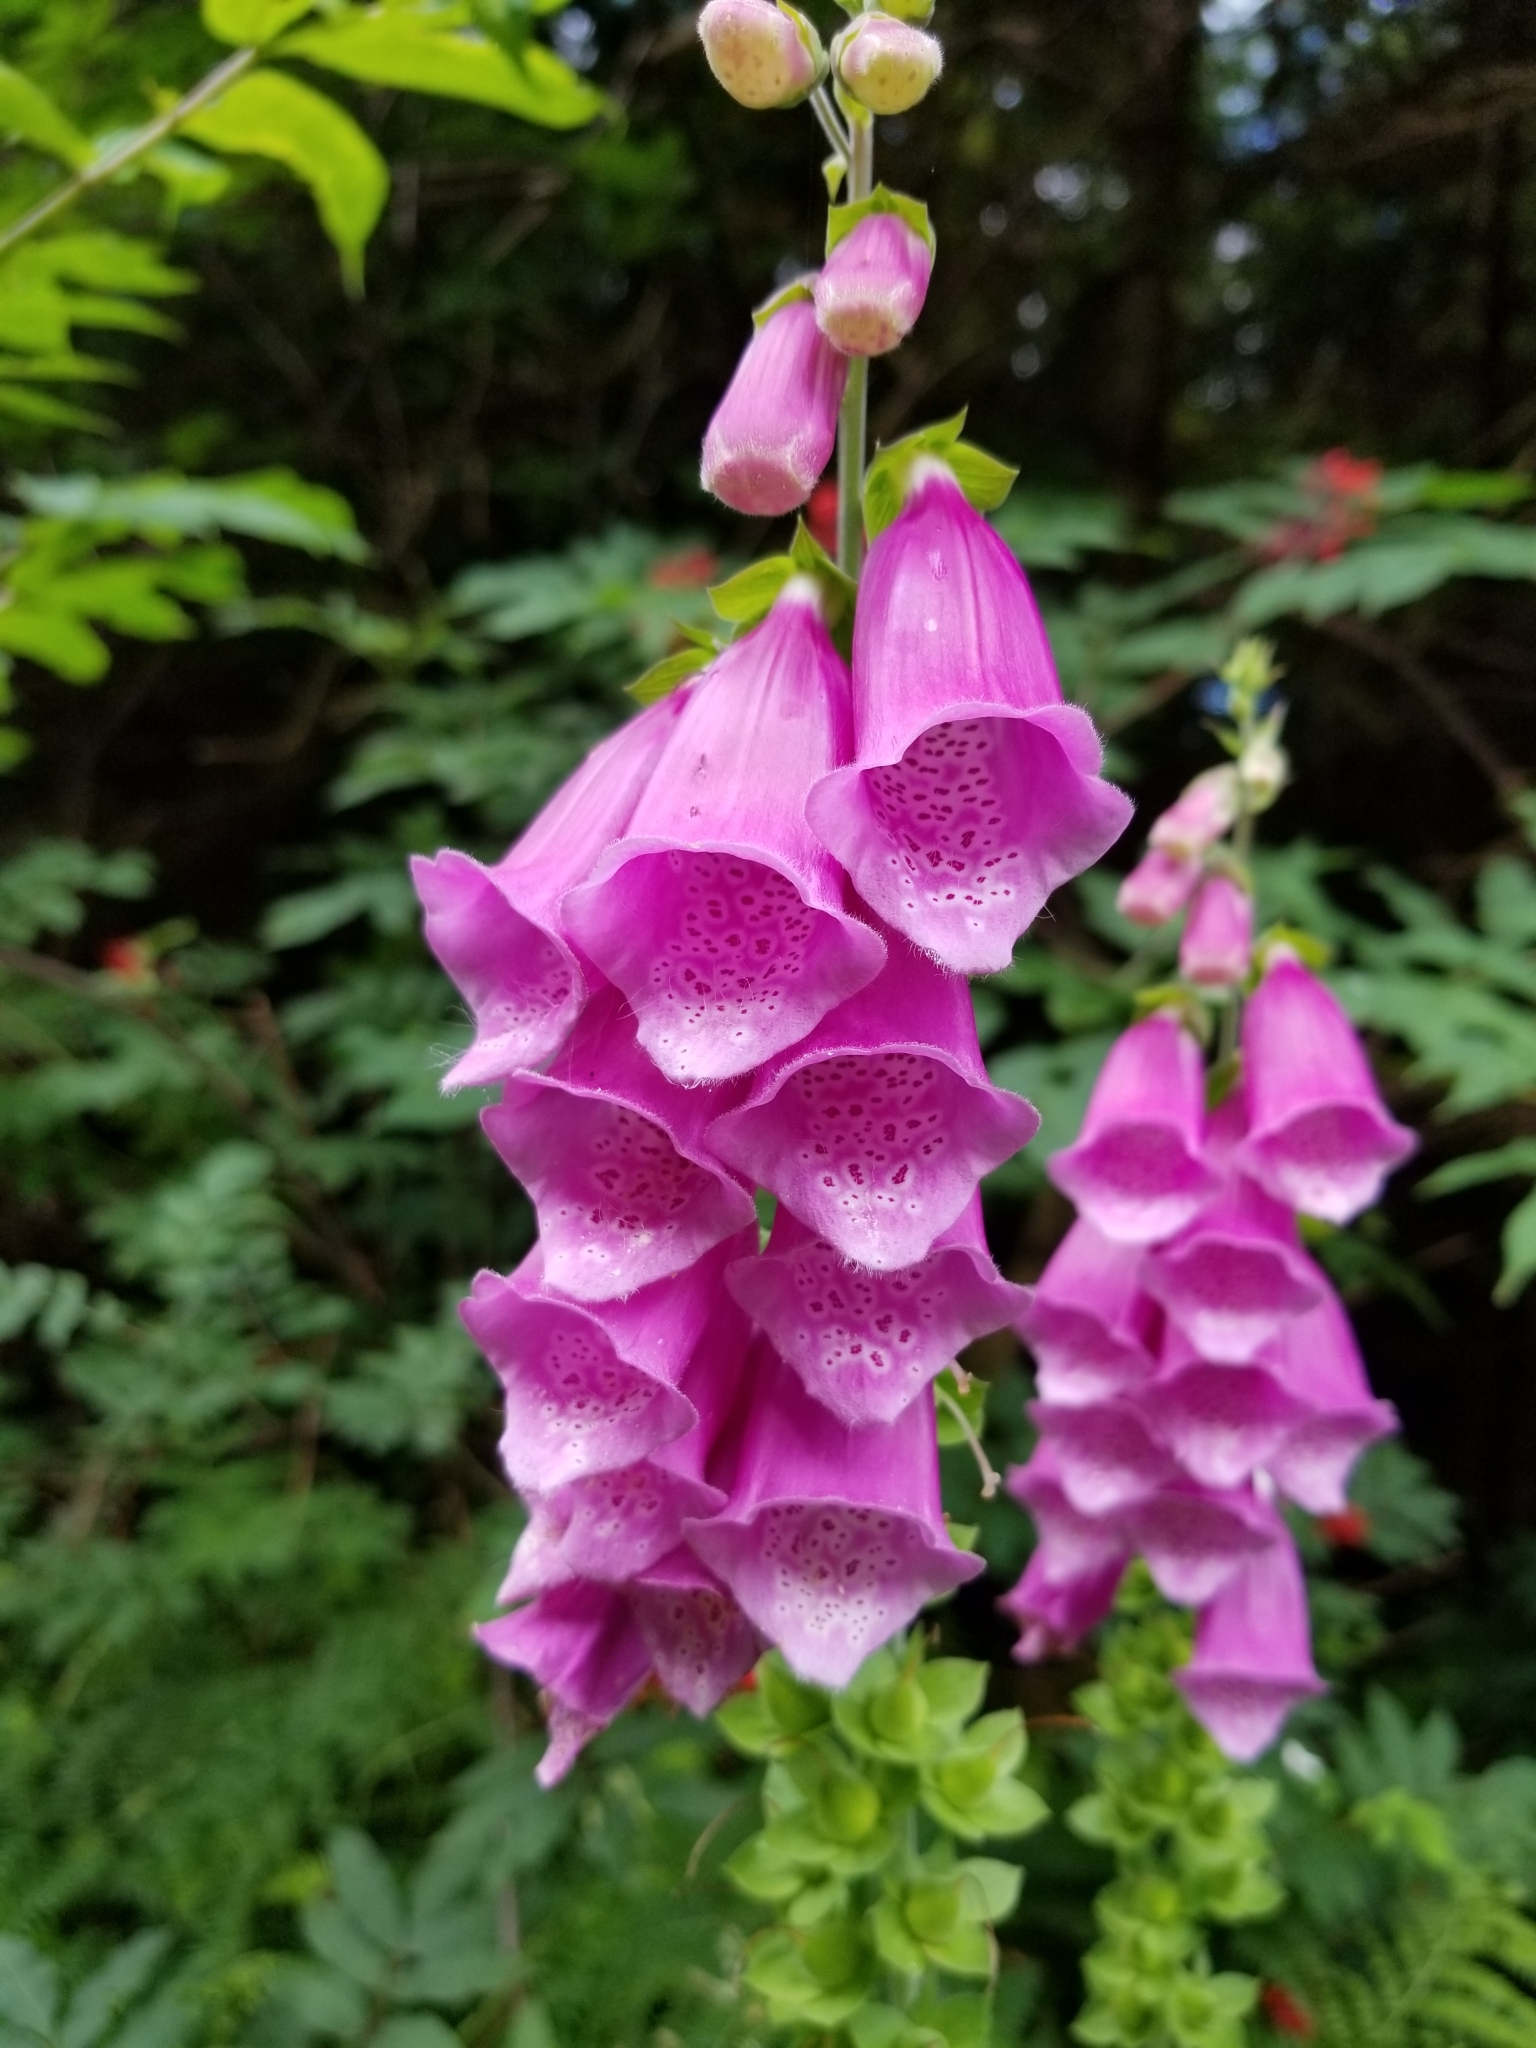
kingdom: Plantae
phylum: Tracheophyta
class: Magnoliopsida
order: Lamiales
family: Plantaginaceae
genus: Digitalis
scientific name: Digitalis purpurea
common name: Foxglove
